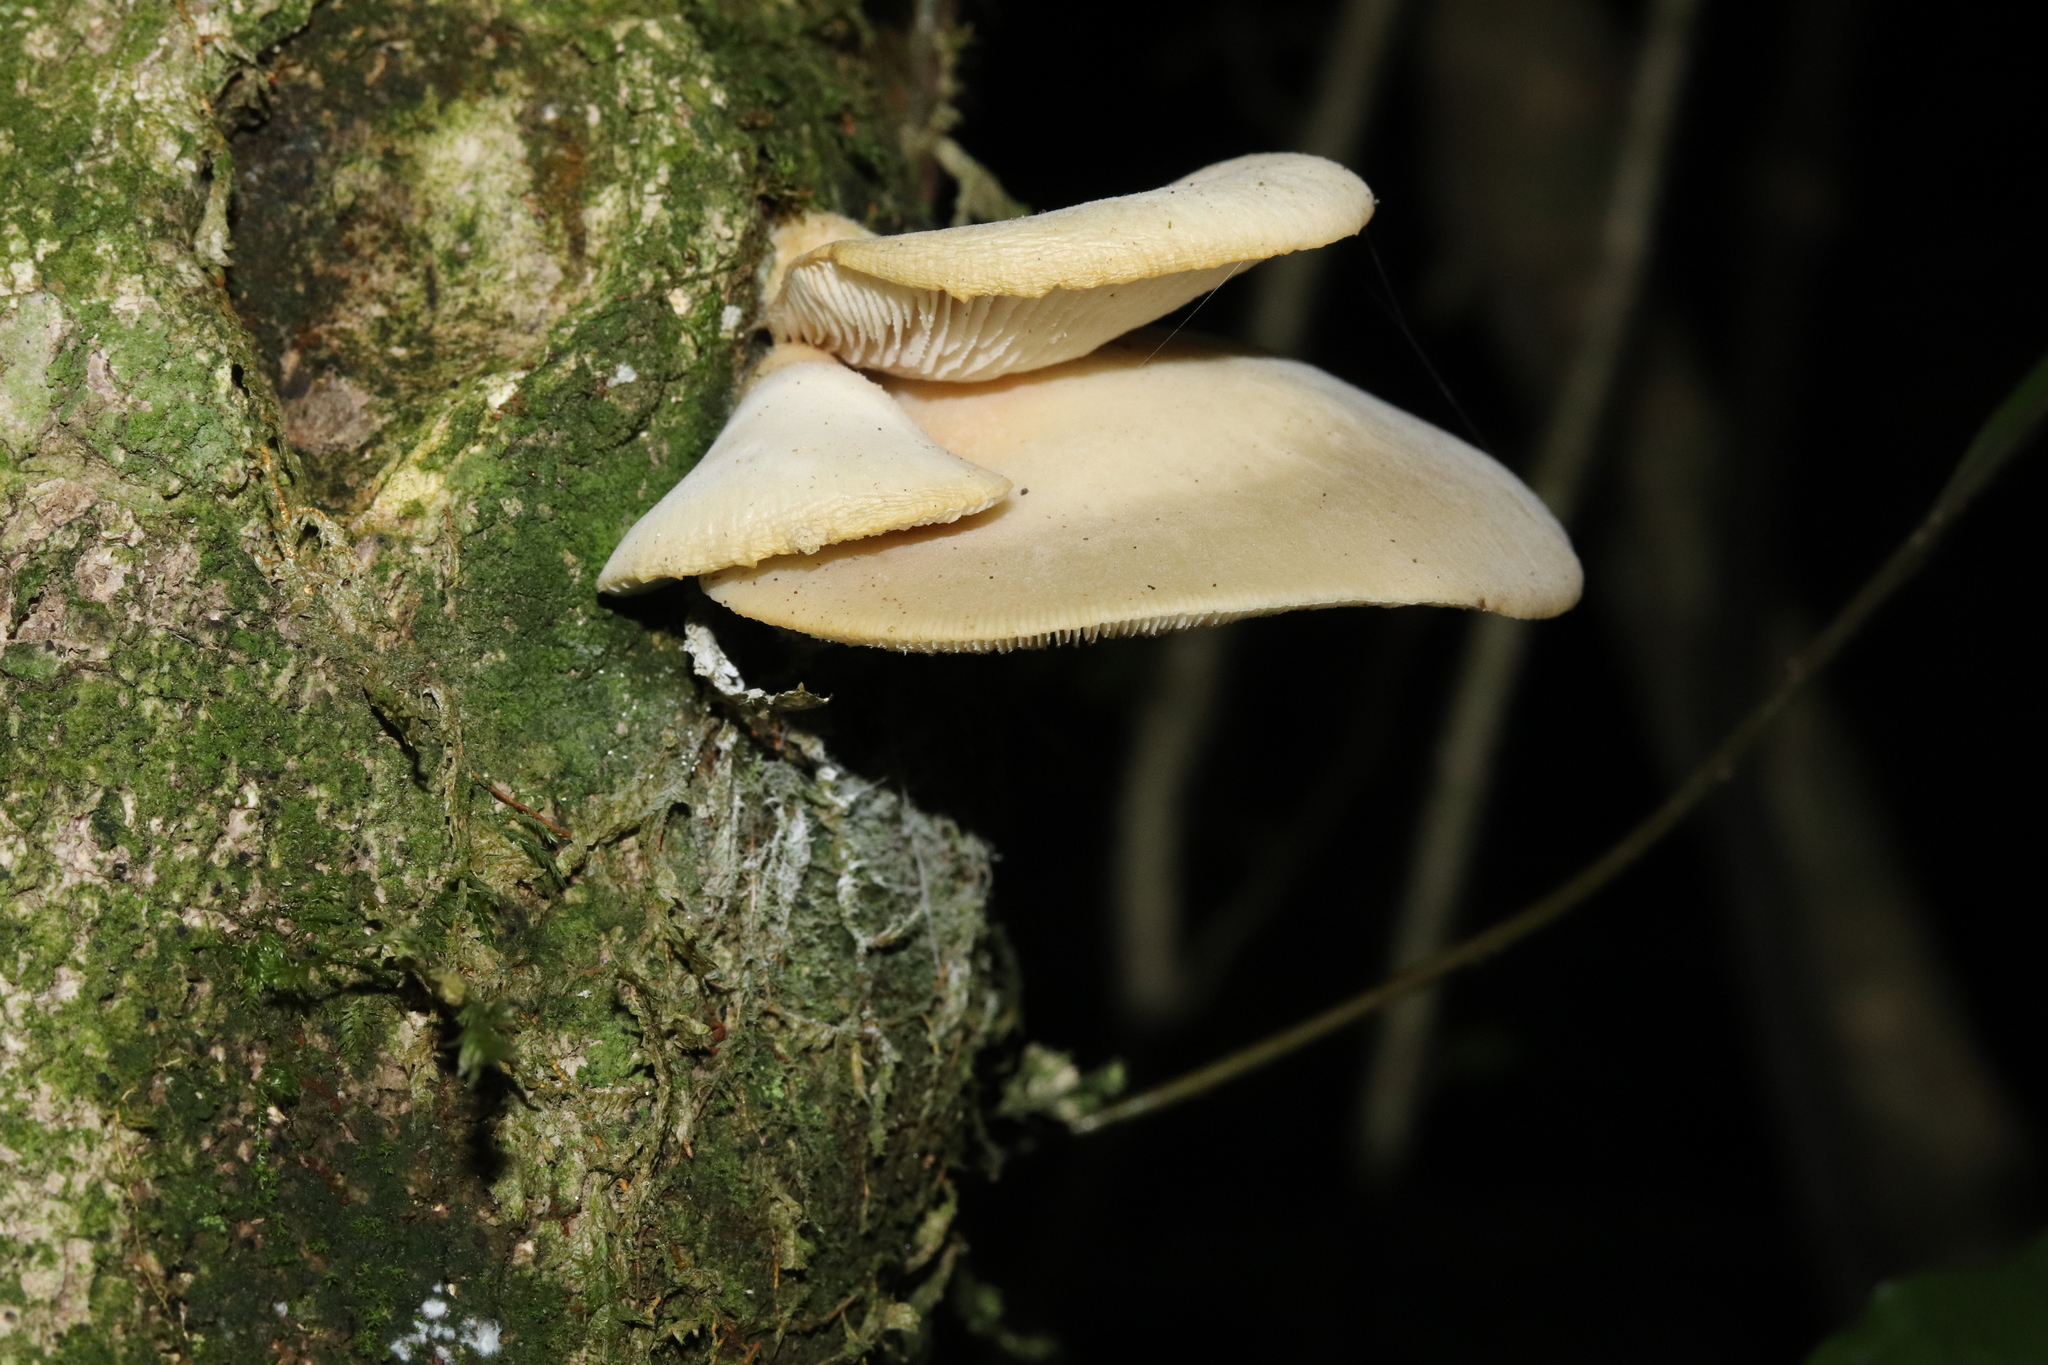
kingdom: Fungi
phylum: Basidiomycota
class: Agaricomycetes
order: Agaricales
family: Tricholomataceae
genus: Conchomyces
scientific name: Conchomyces bursiformis
